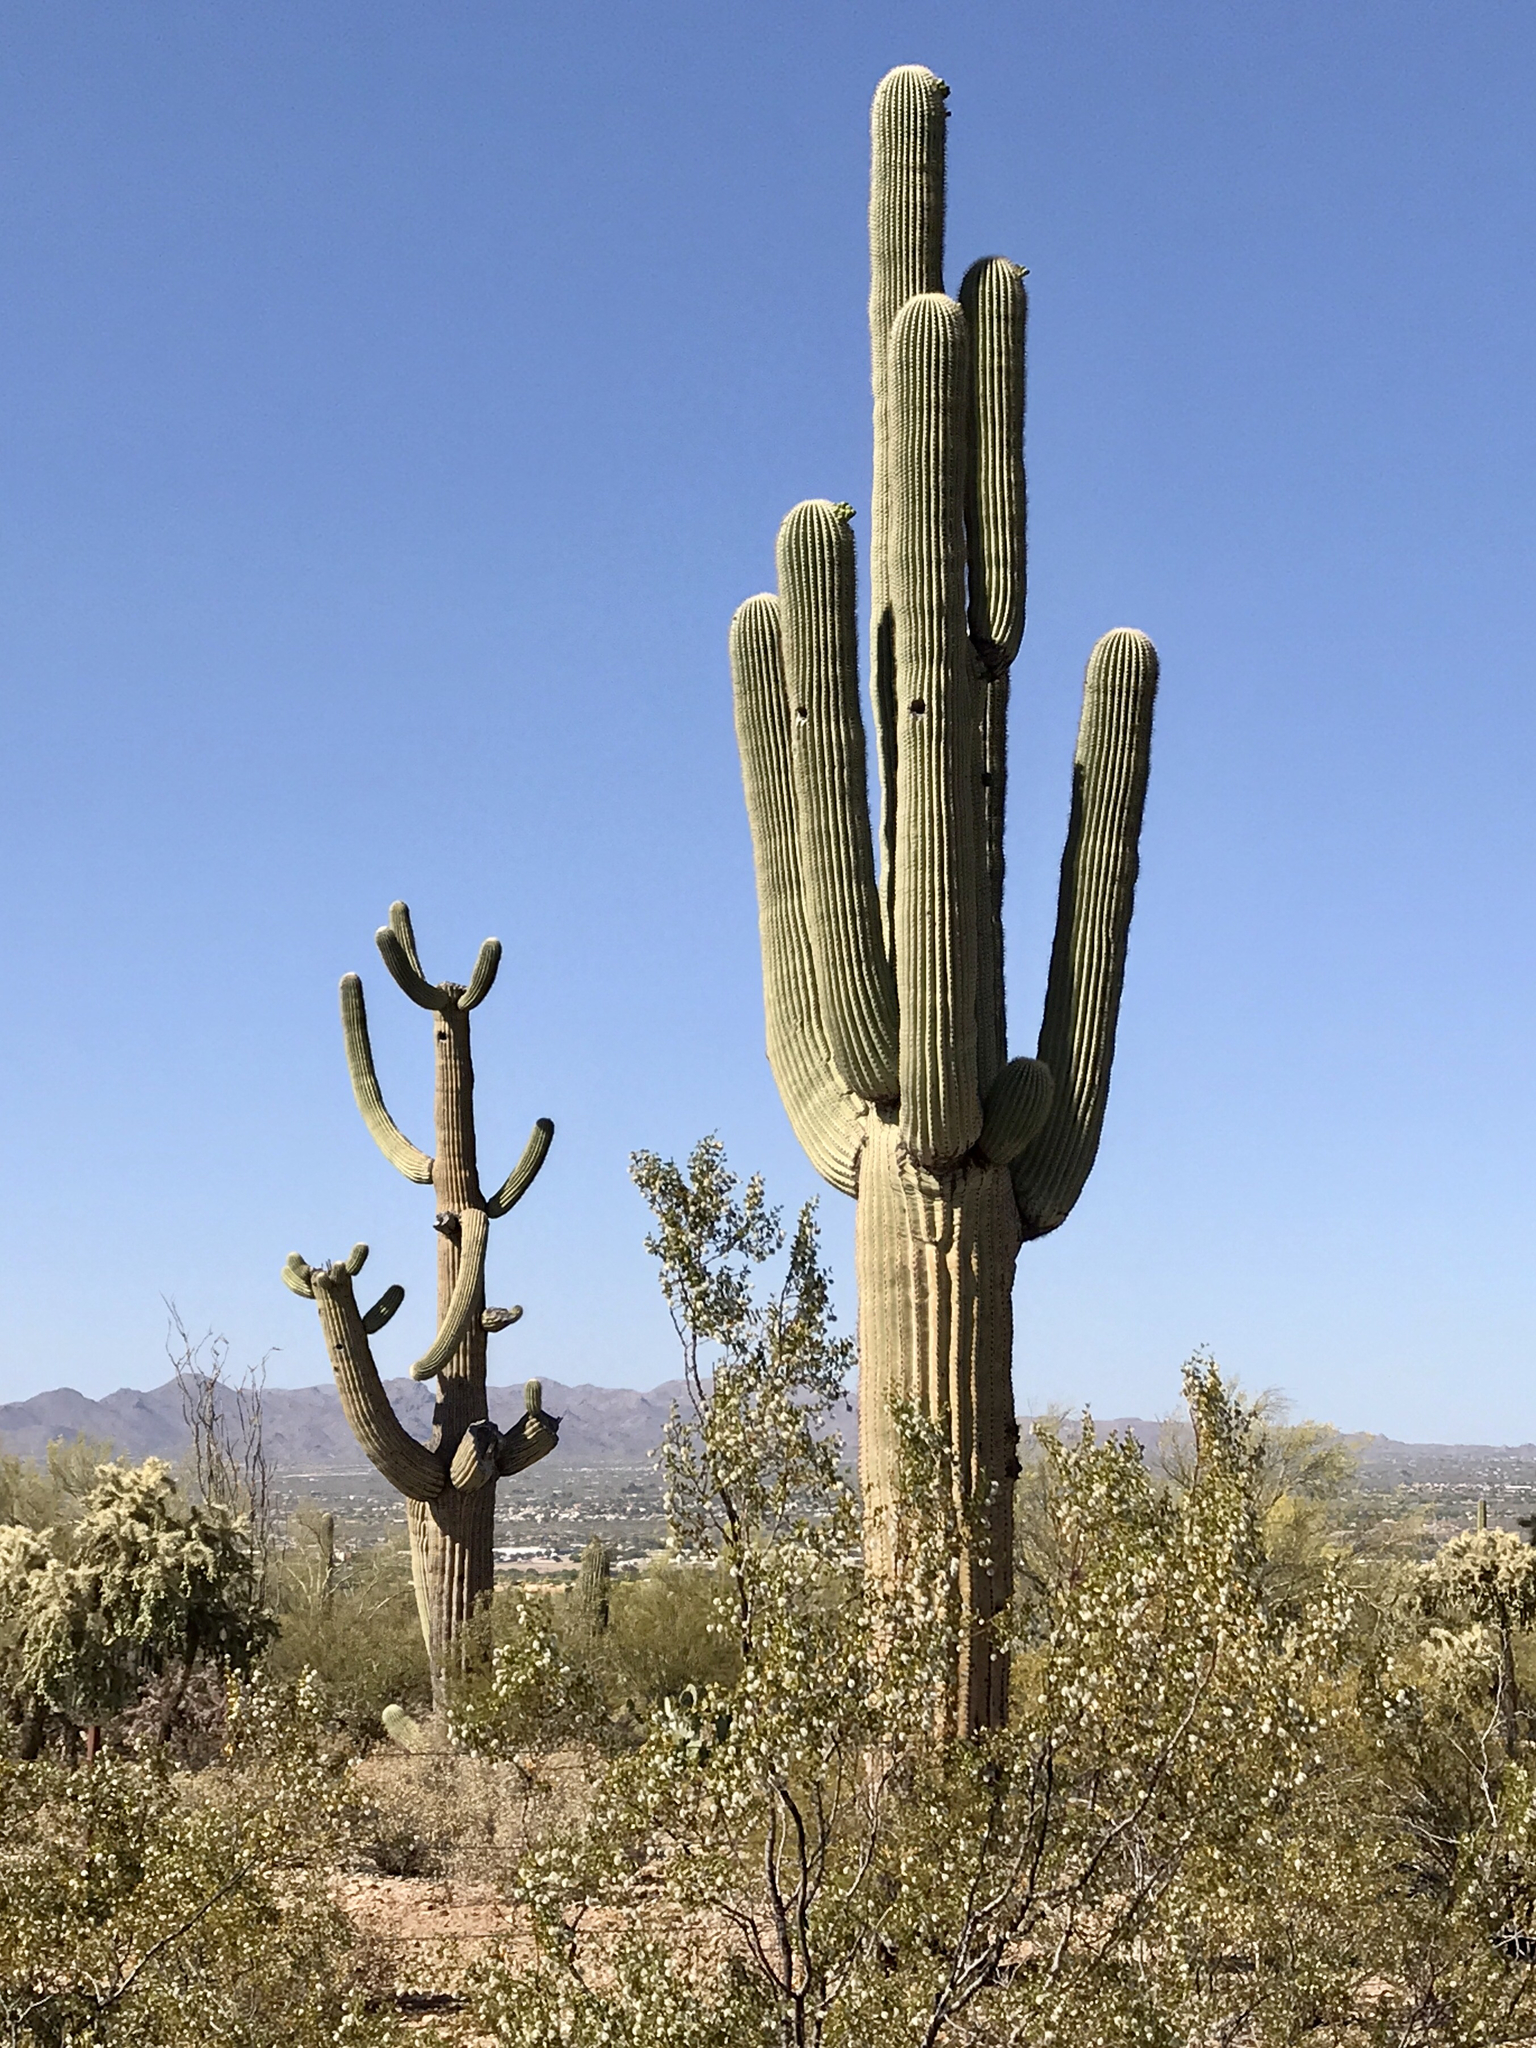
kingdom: Plantae
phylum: Tracheophyta
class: Magnoliopsida
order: Caryophyllales
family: Cactaceae
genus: Carnegiea
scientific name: Carnegiea gigantea
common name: Saguaro
